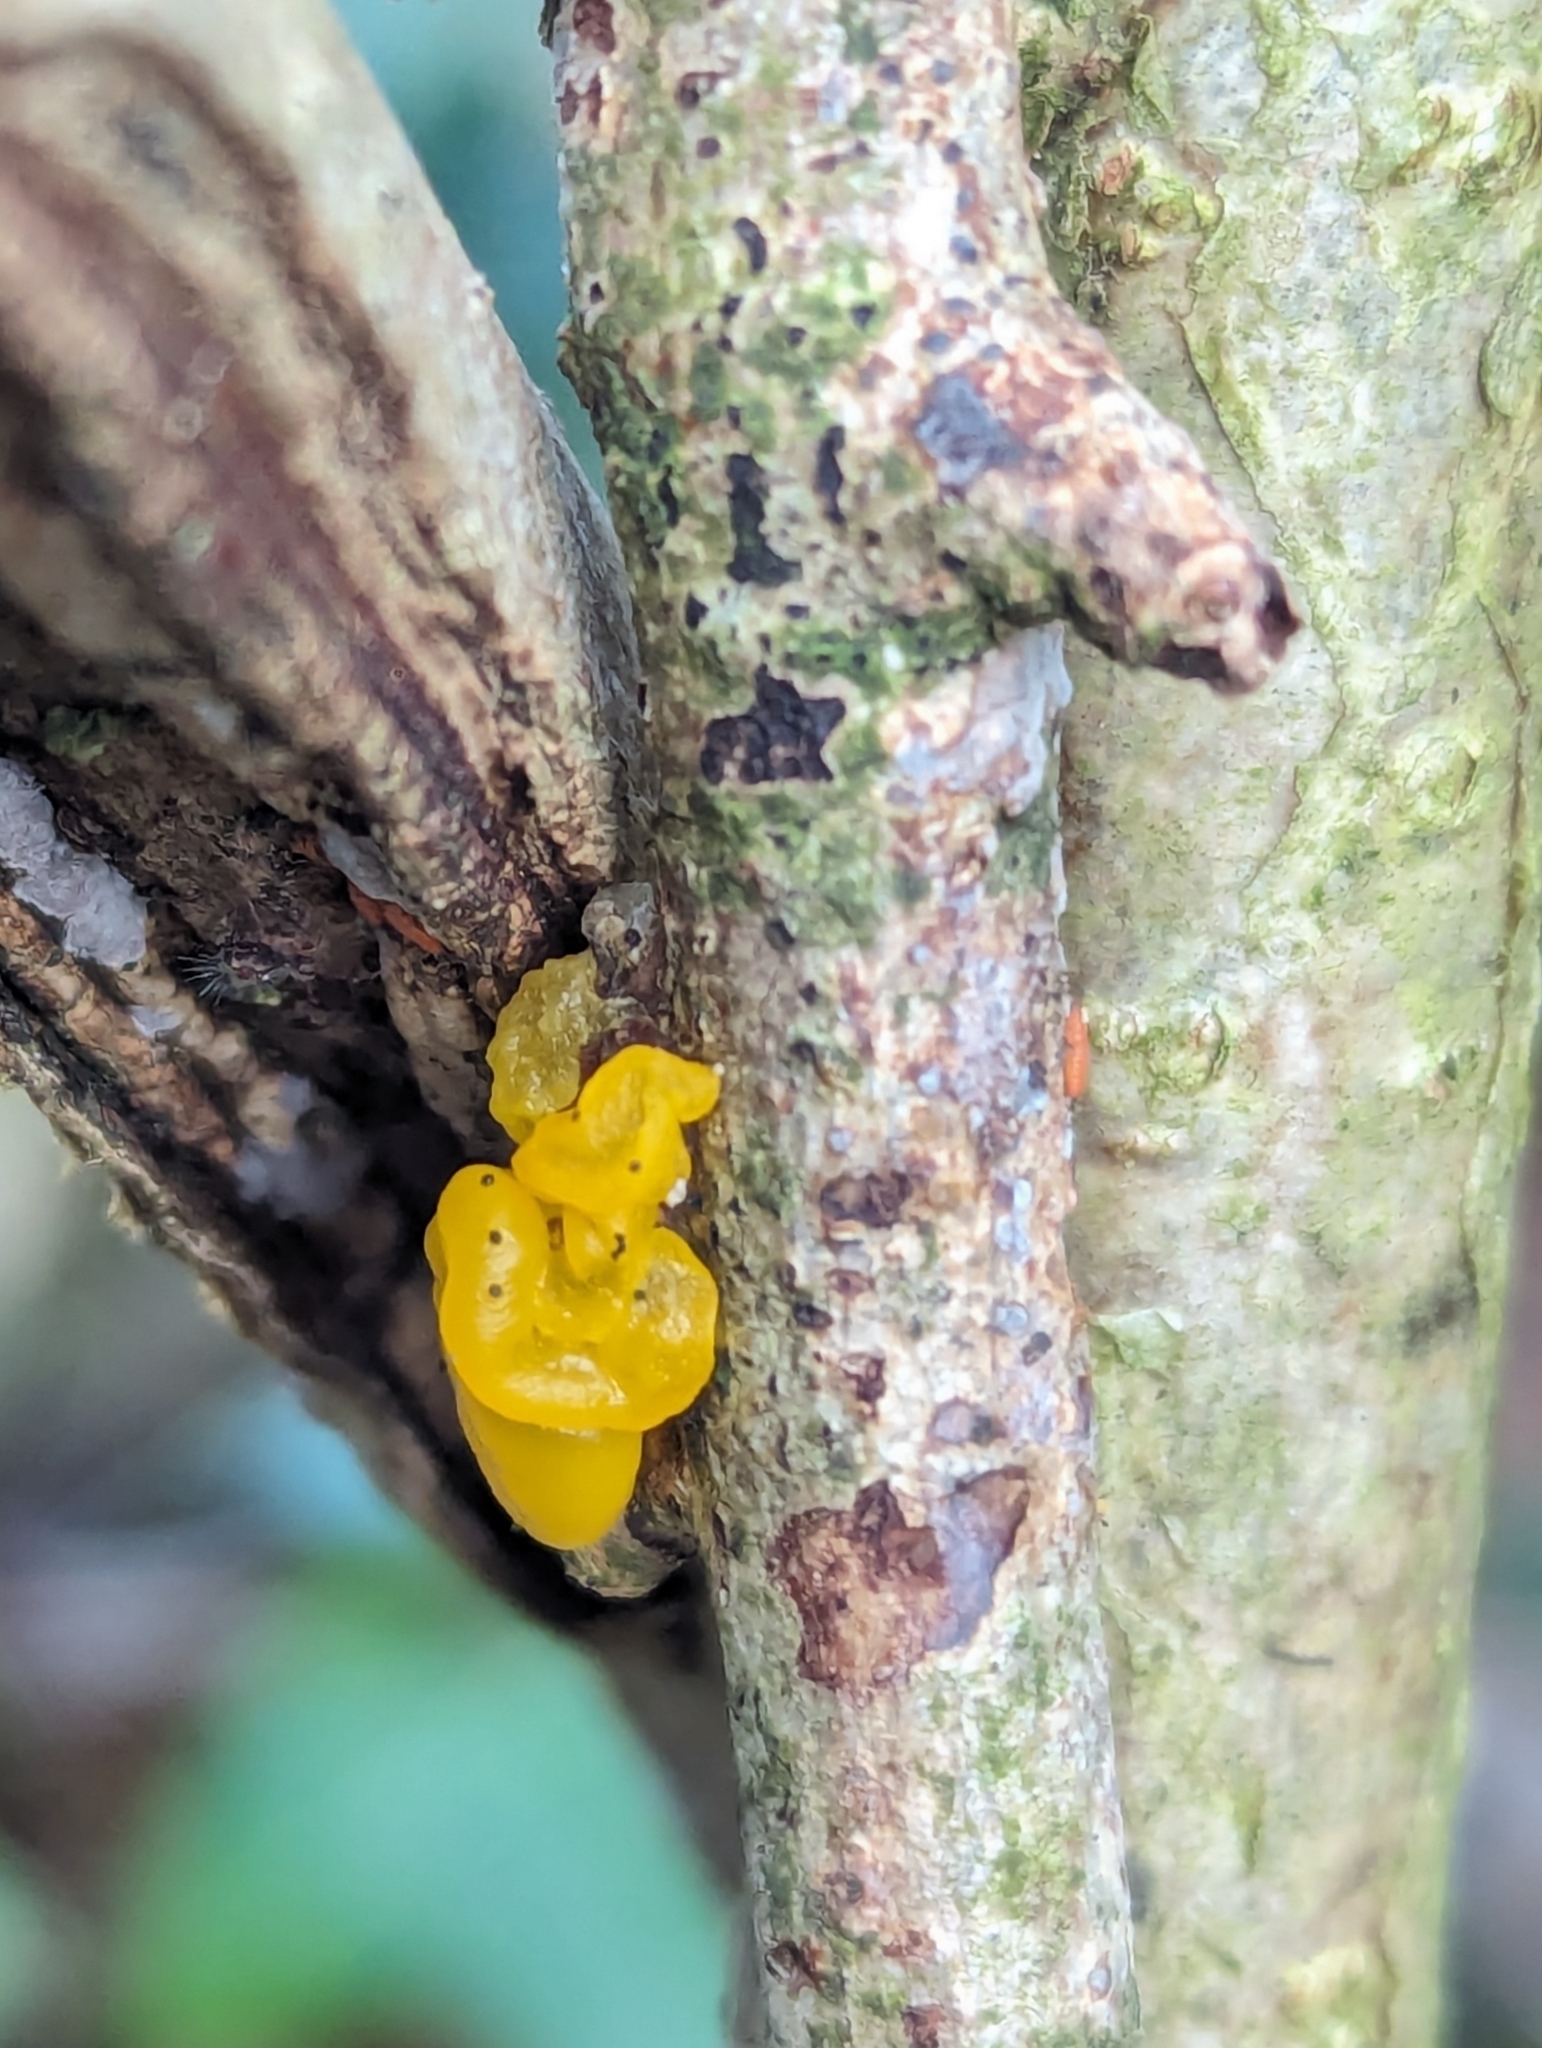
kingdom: Fungi
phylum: Basidiomycota
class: Tremellomycetes
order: Tremellales
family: Tremellaceae
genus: Tremella
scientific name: Tremella mesenterica
